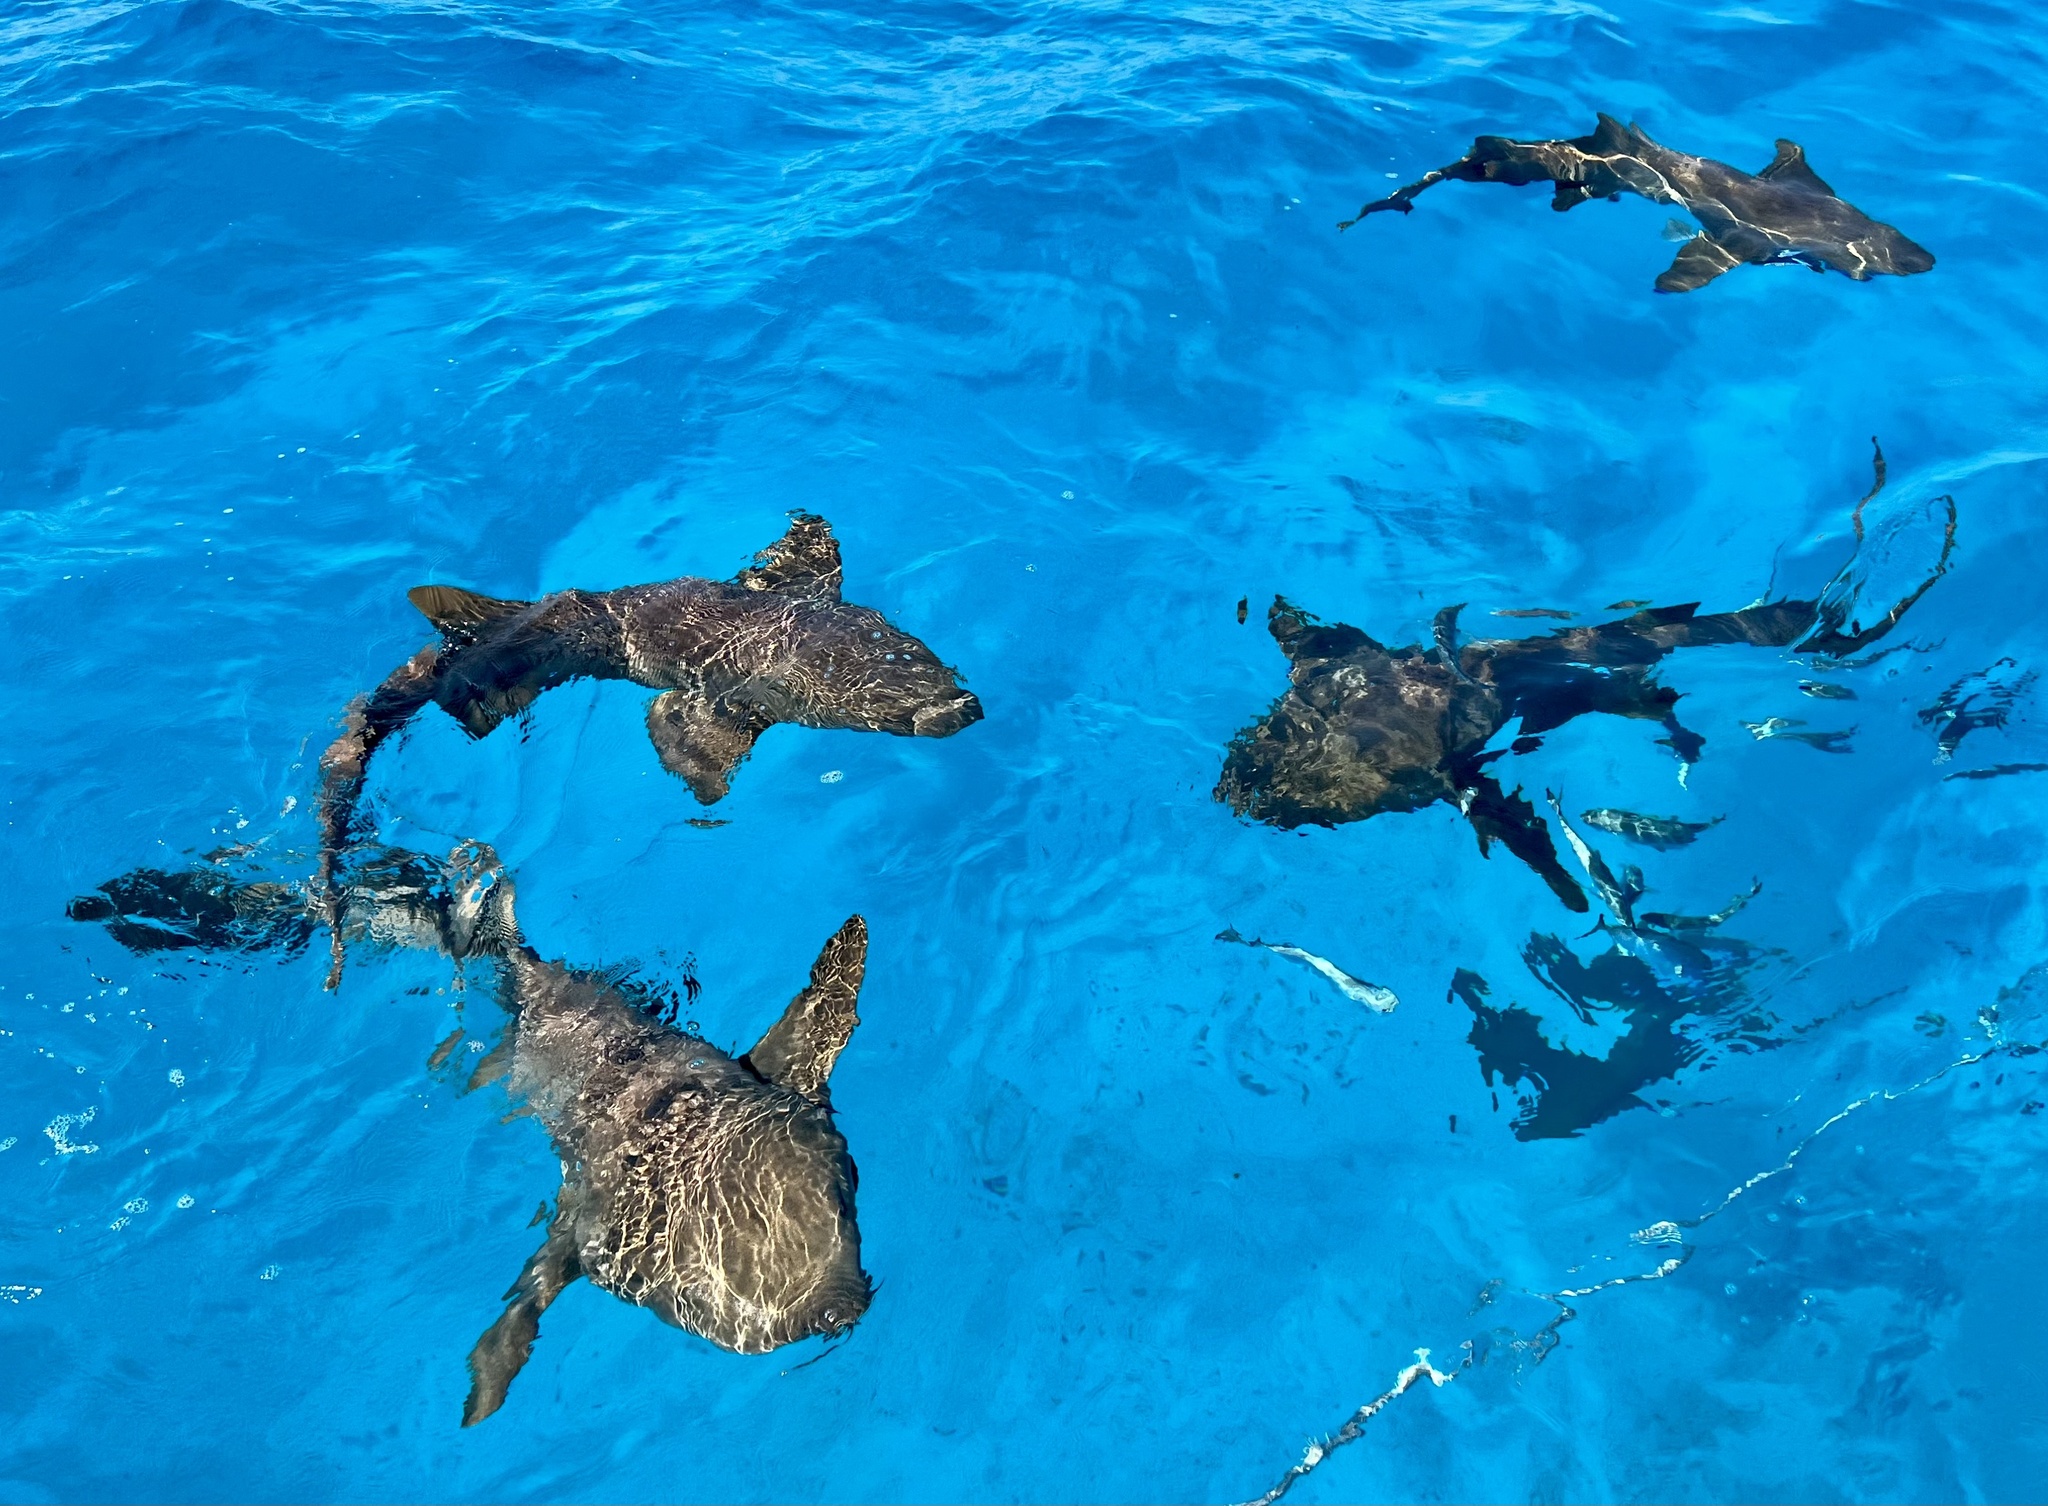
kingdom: Animalia
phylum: Chordata
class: Elasmobranchii
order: Orectolobiformes
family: Ginglymostomatidae
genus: Ginglymostoma
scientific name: Ginglymostoma cirratum
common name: Nurse shark
